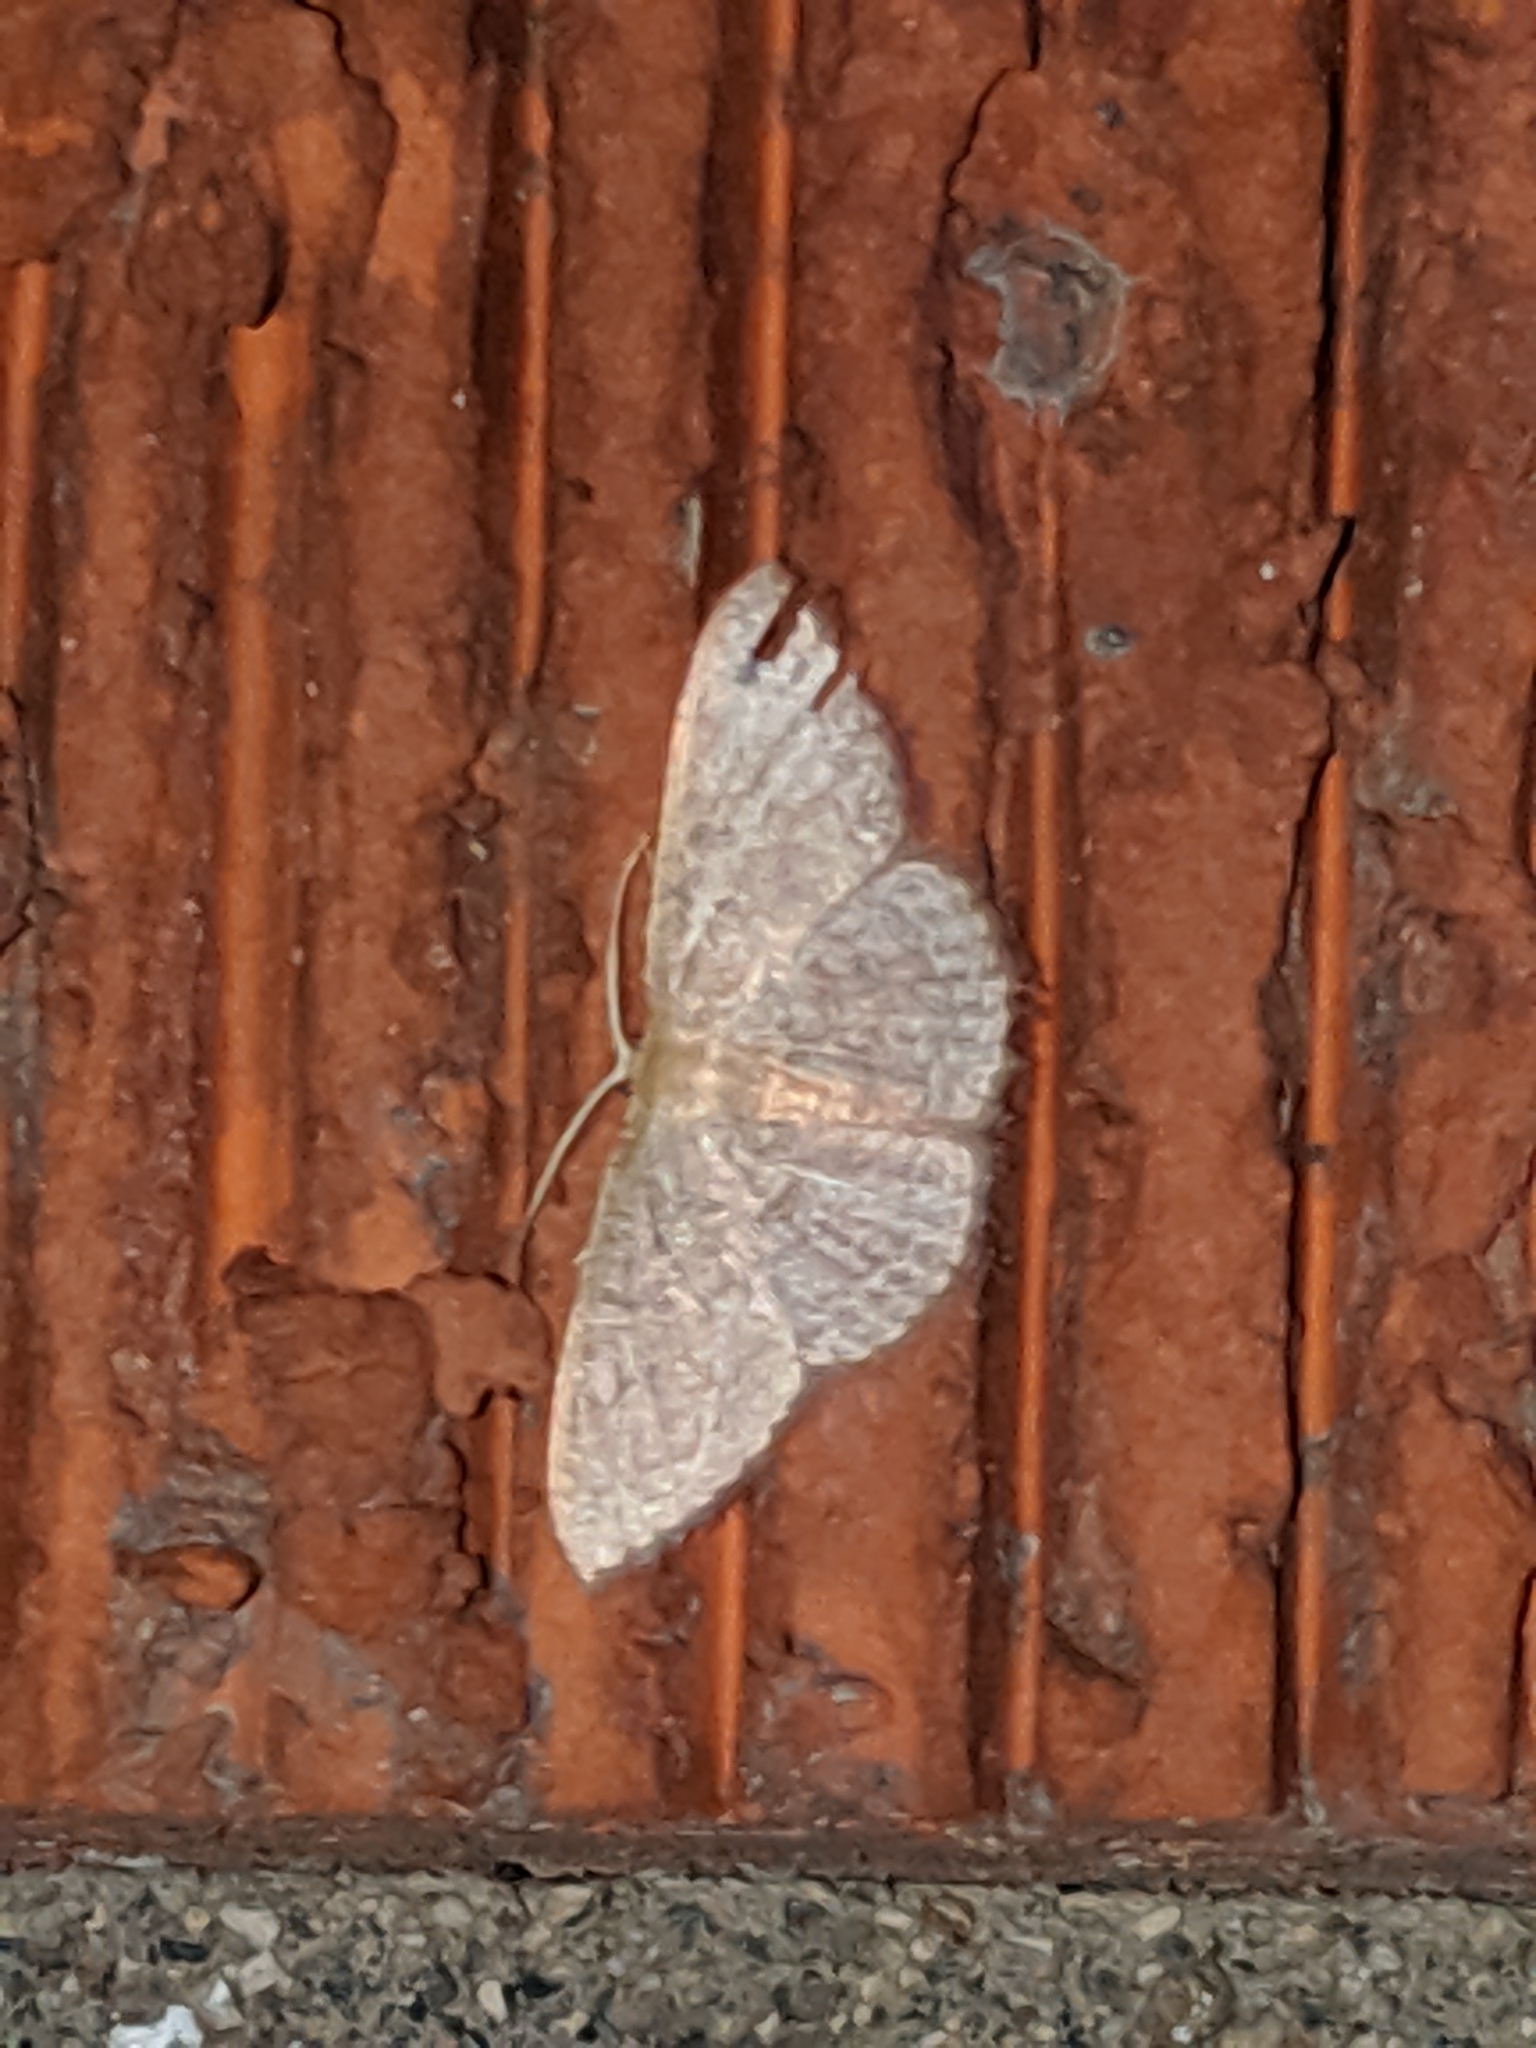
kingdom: Animalia
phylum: Arthropoda
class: Insecta
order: Lepidoptera
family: Geometridae
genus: Pleuroprucha
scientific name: Pleuroprucha insulsaria
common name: Common tan wave
